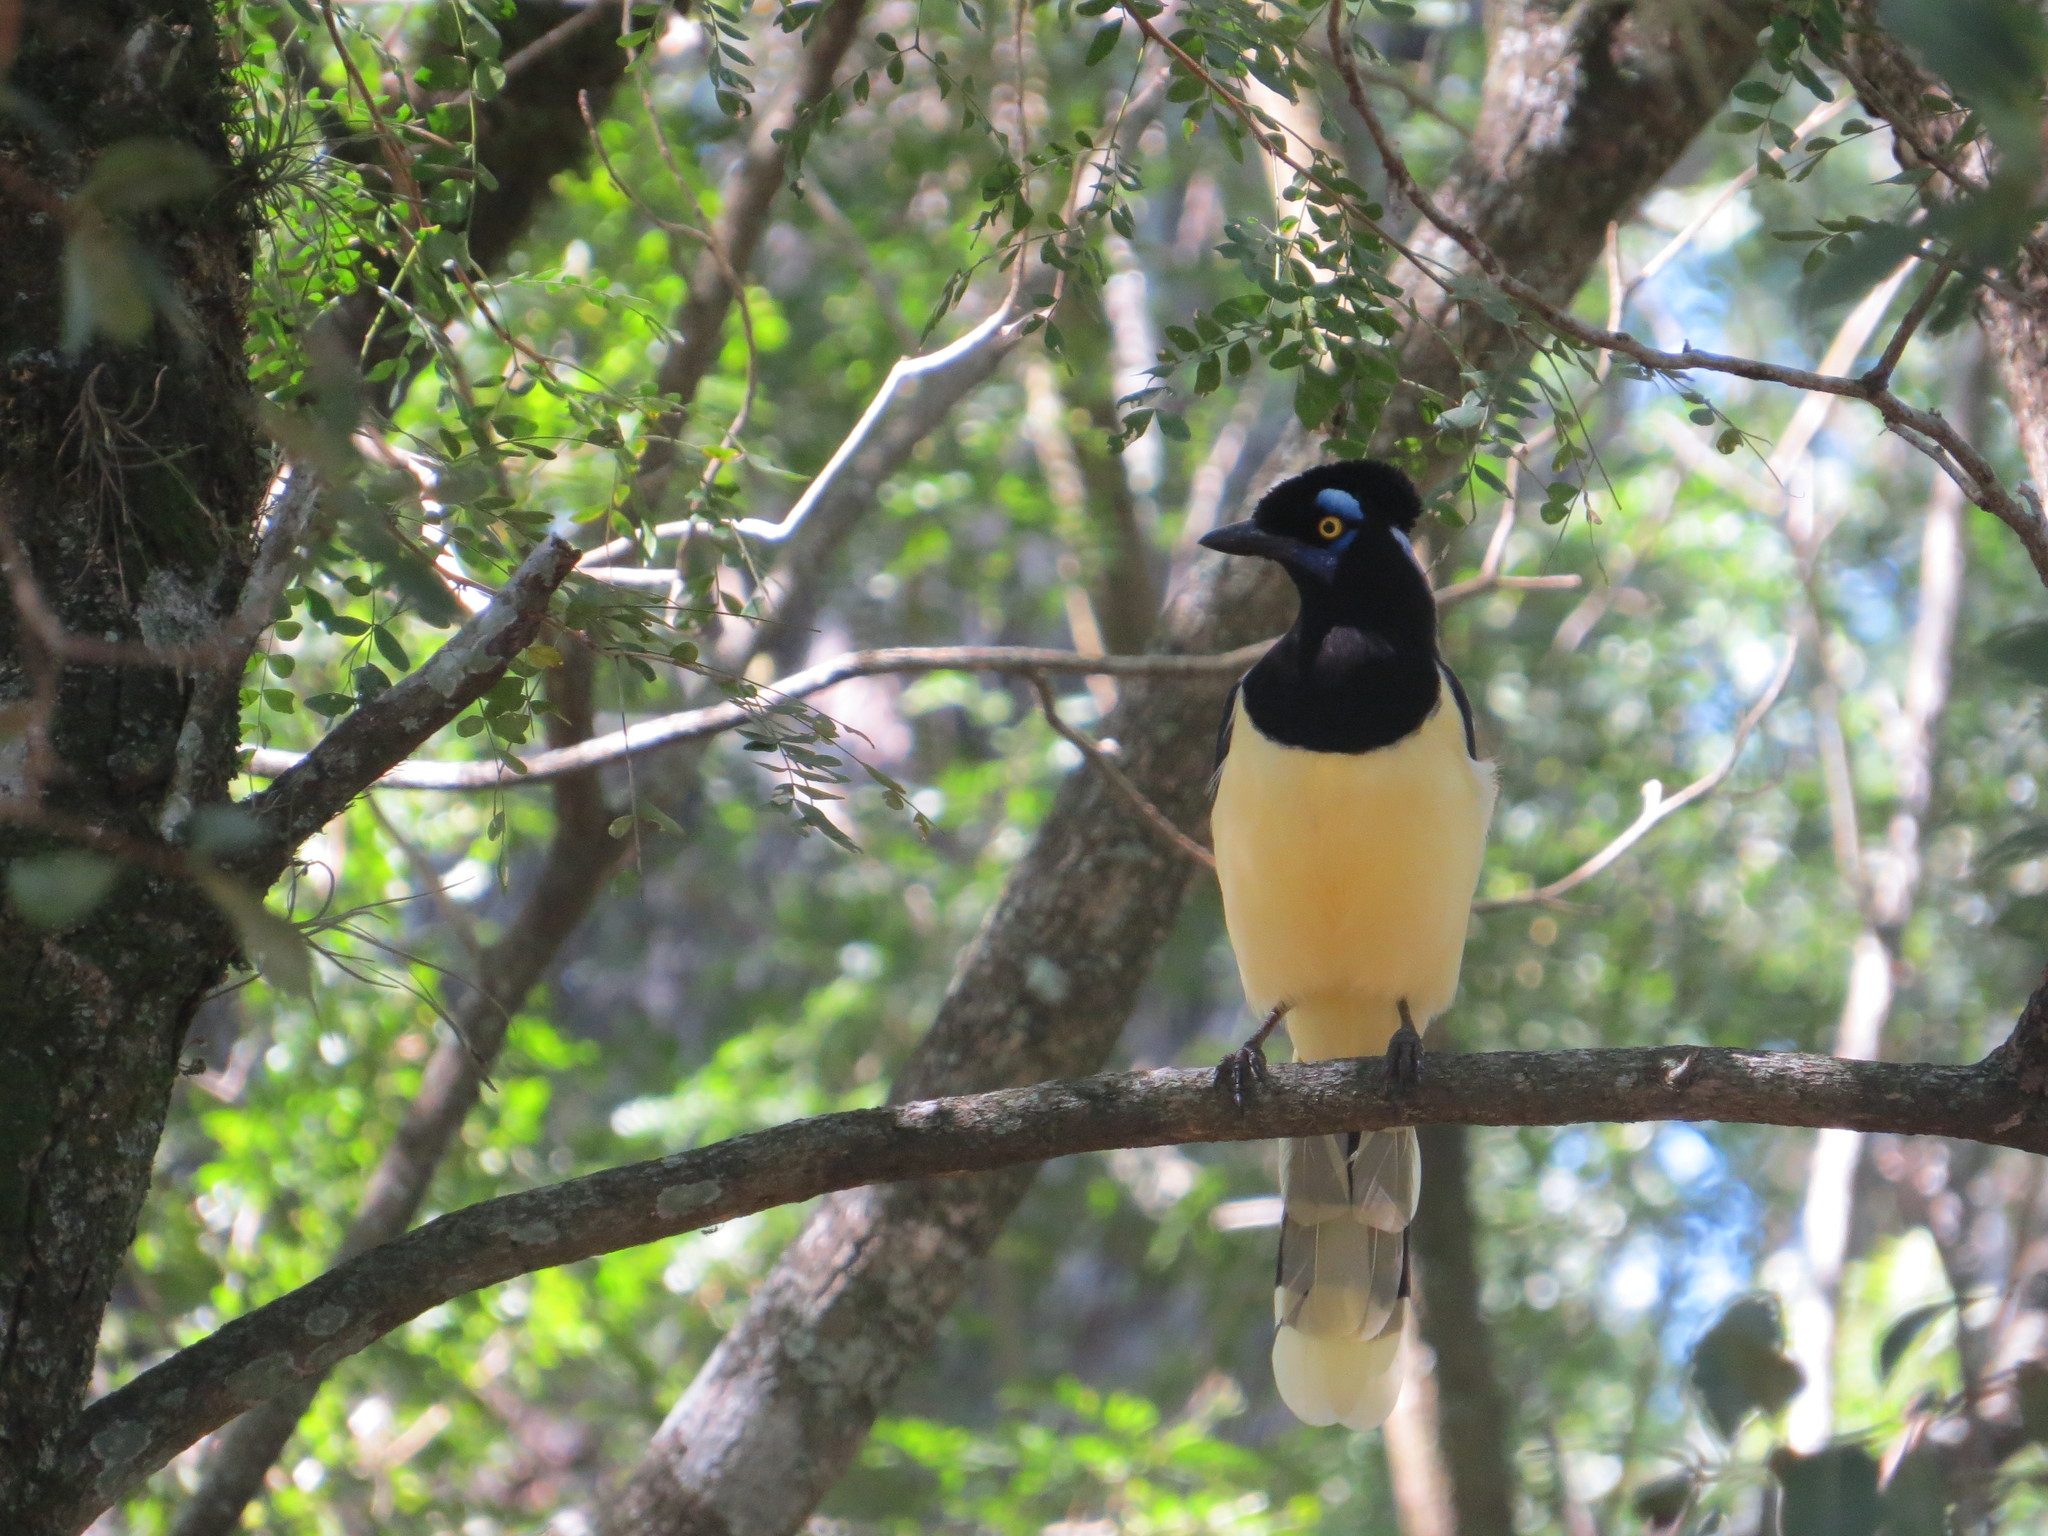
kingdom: Animalia
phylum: Chordata
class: Aves
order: Passeriformes
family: Corvidae
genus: Cyanocorax
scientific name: Cyanocorax chrysops
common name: Plush-crested jay
